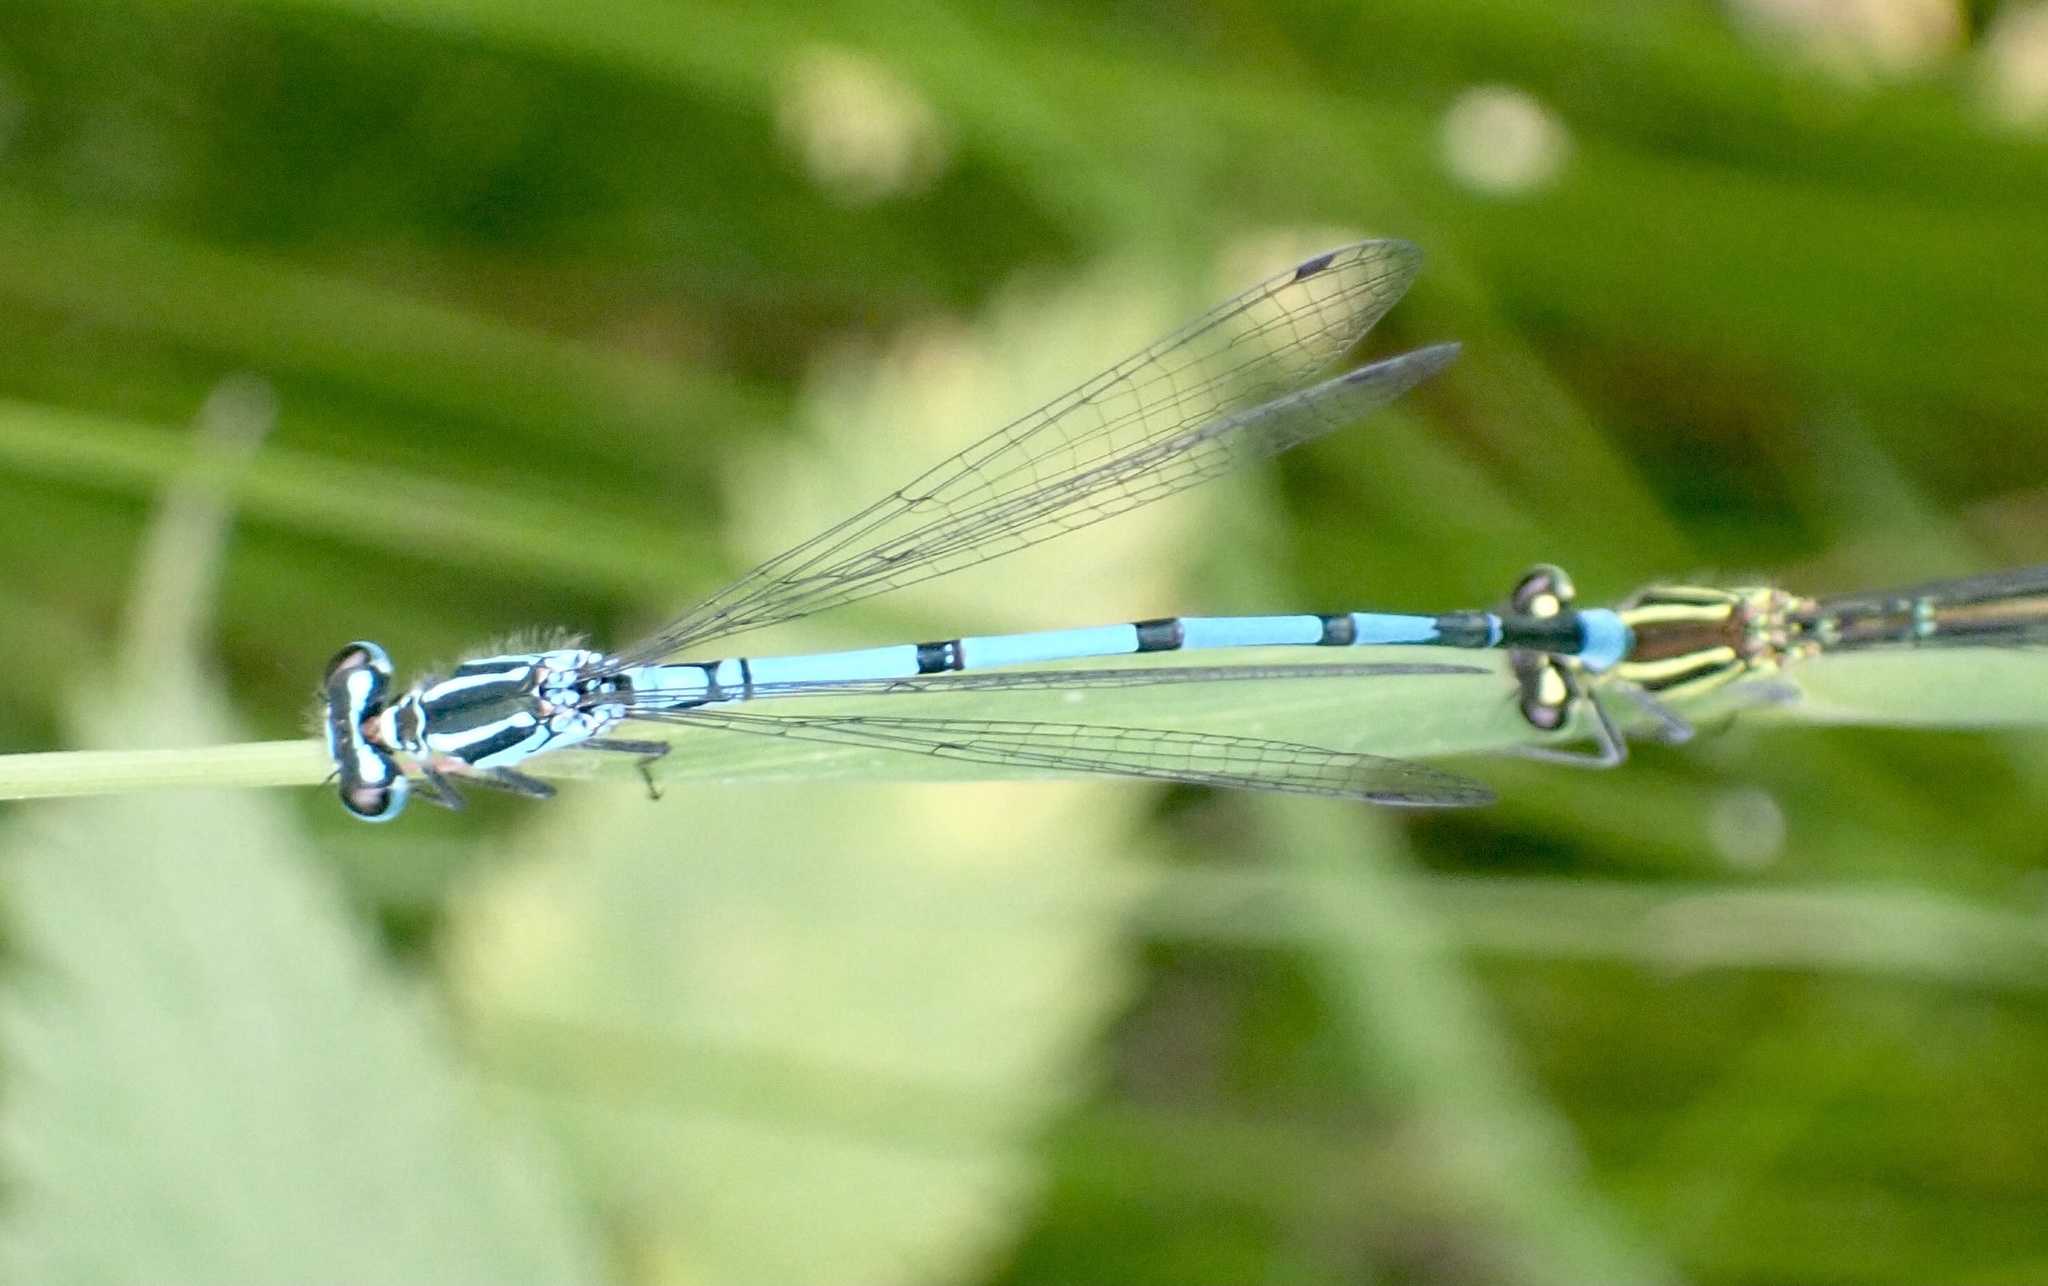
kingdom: Animalia
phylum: Arthropoda
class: Insecta
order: Odonata
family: Coenagrionidae
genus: Coenagrion
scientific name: Coenagrion puella
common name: Azure damselfly
